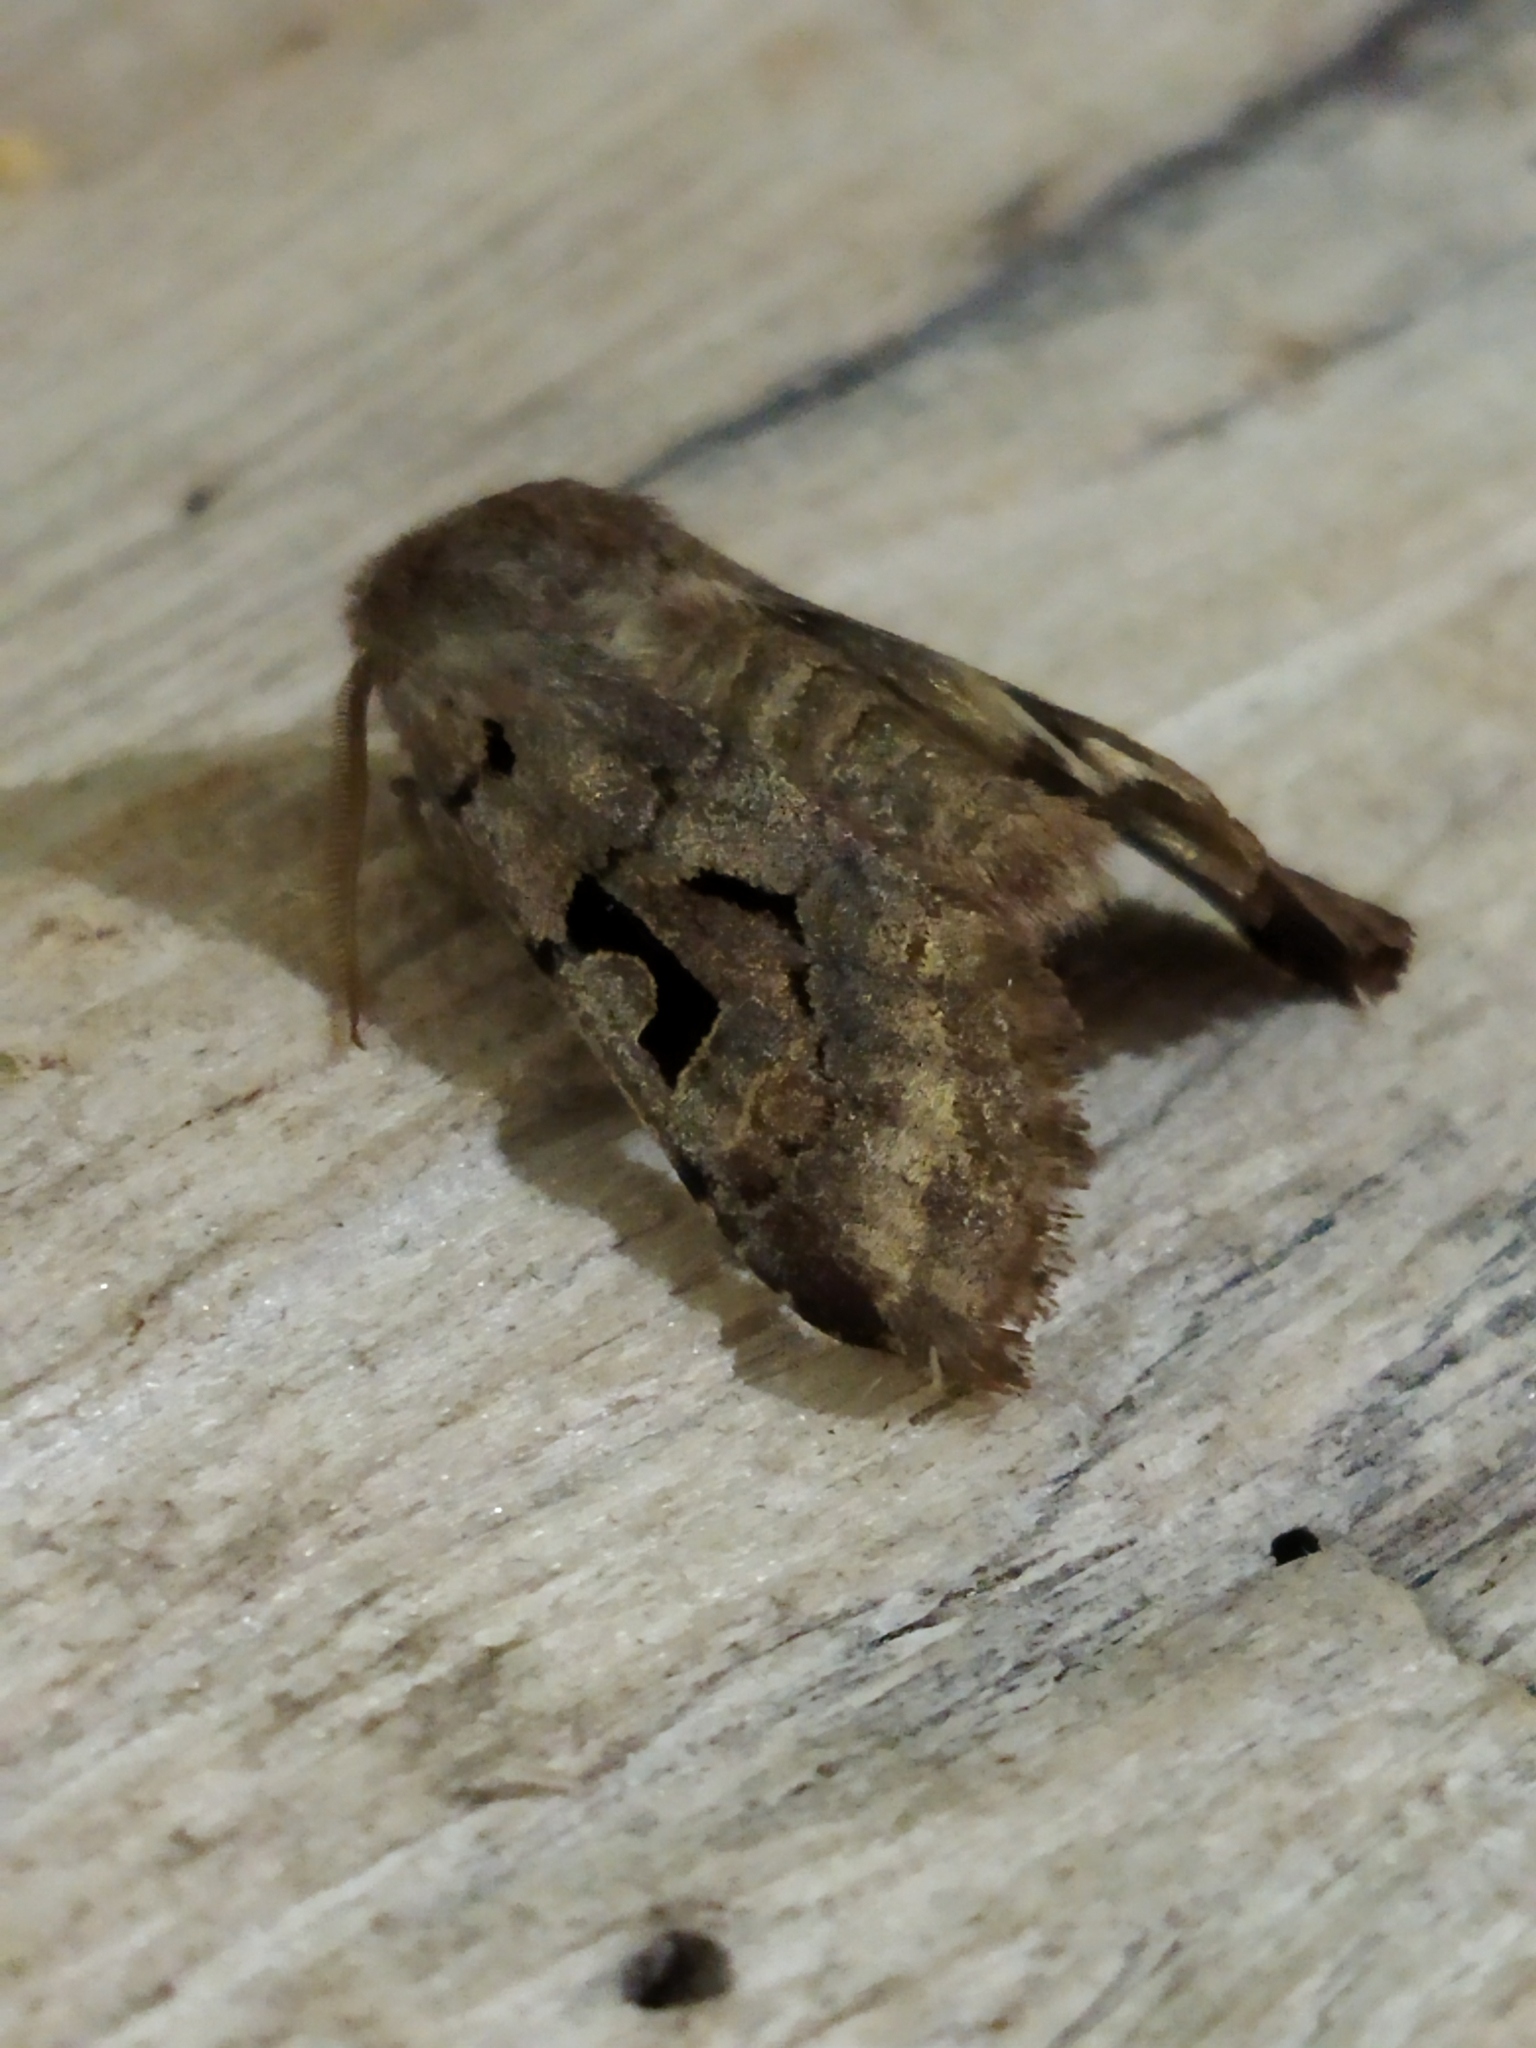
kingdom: Animalia
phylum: Arthropoda
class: Insecta
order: Lepidoptera
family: Noctuidae
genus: Orthosia
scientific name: Orthosia gothica
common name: Hebrew character
